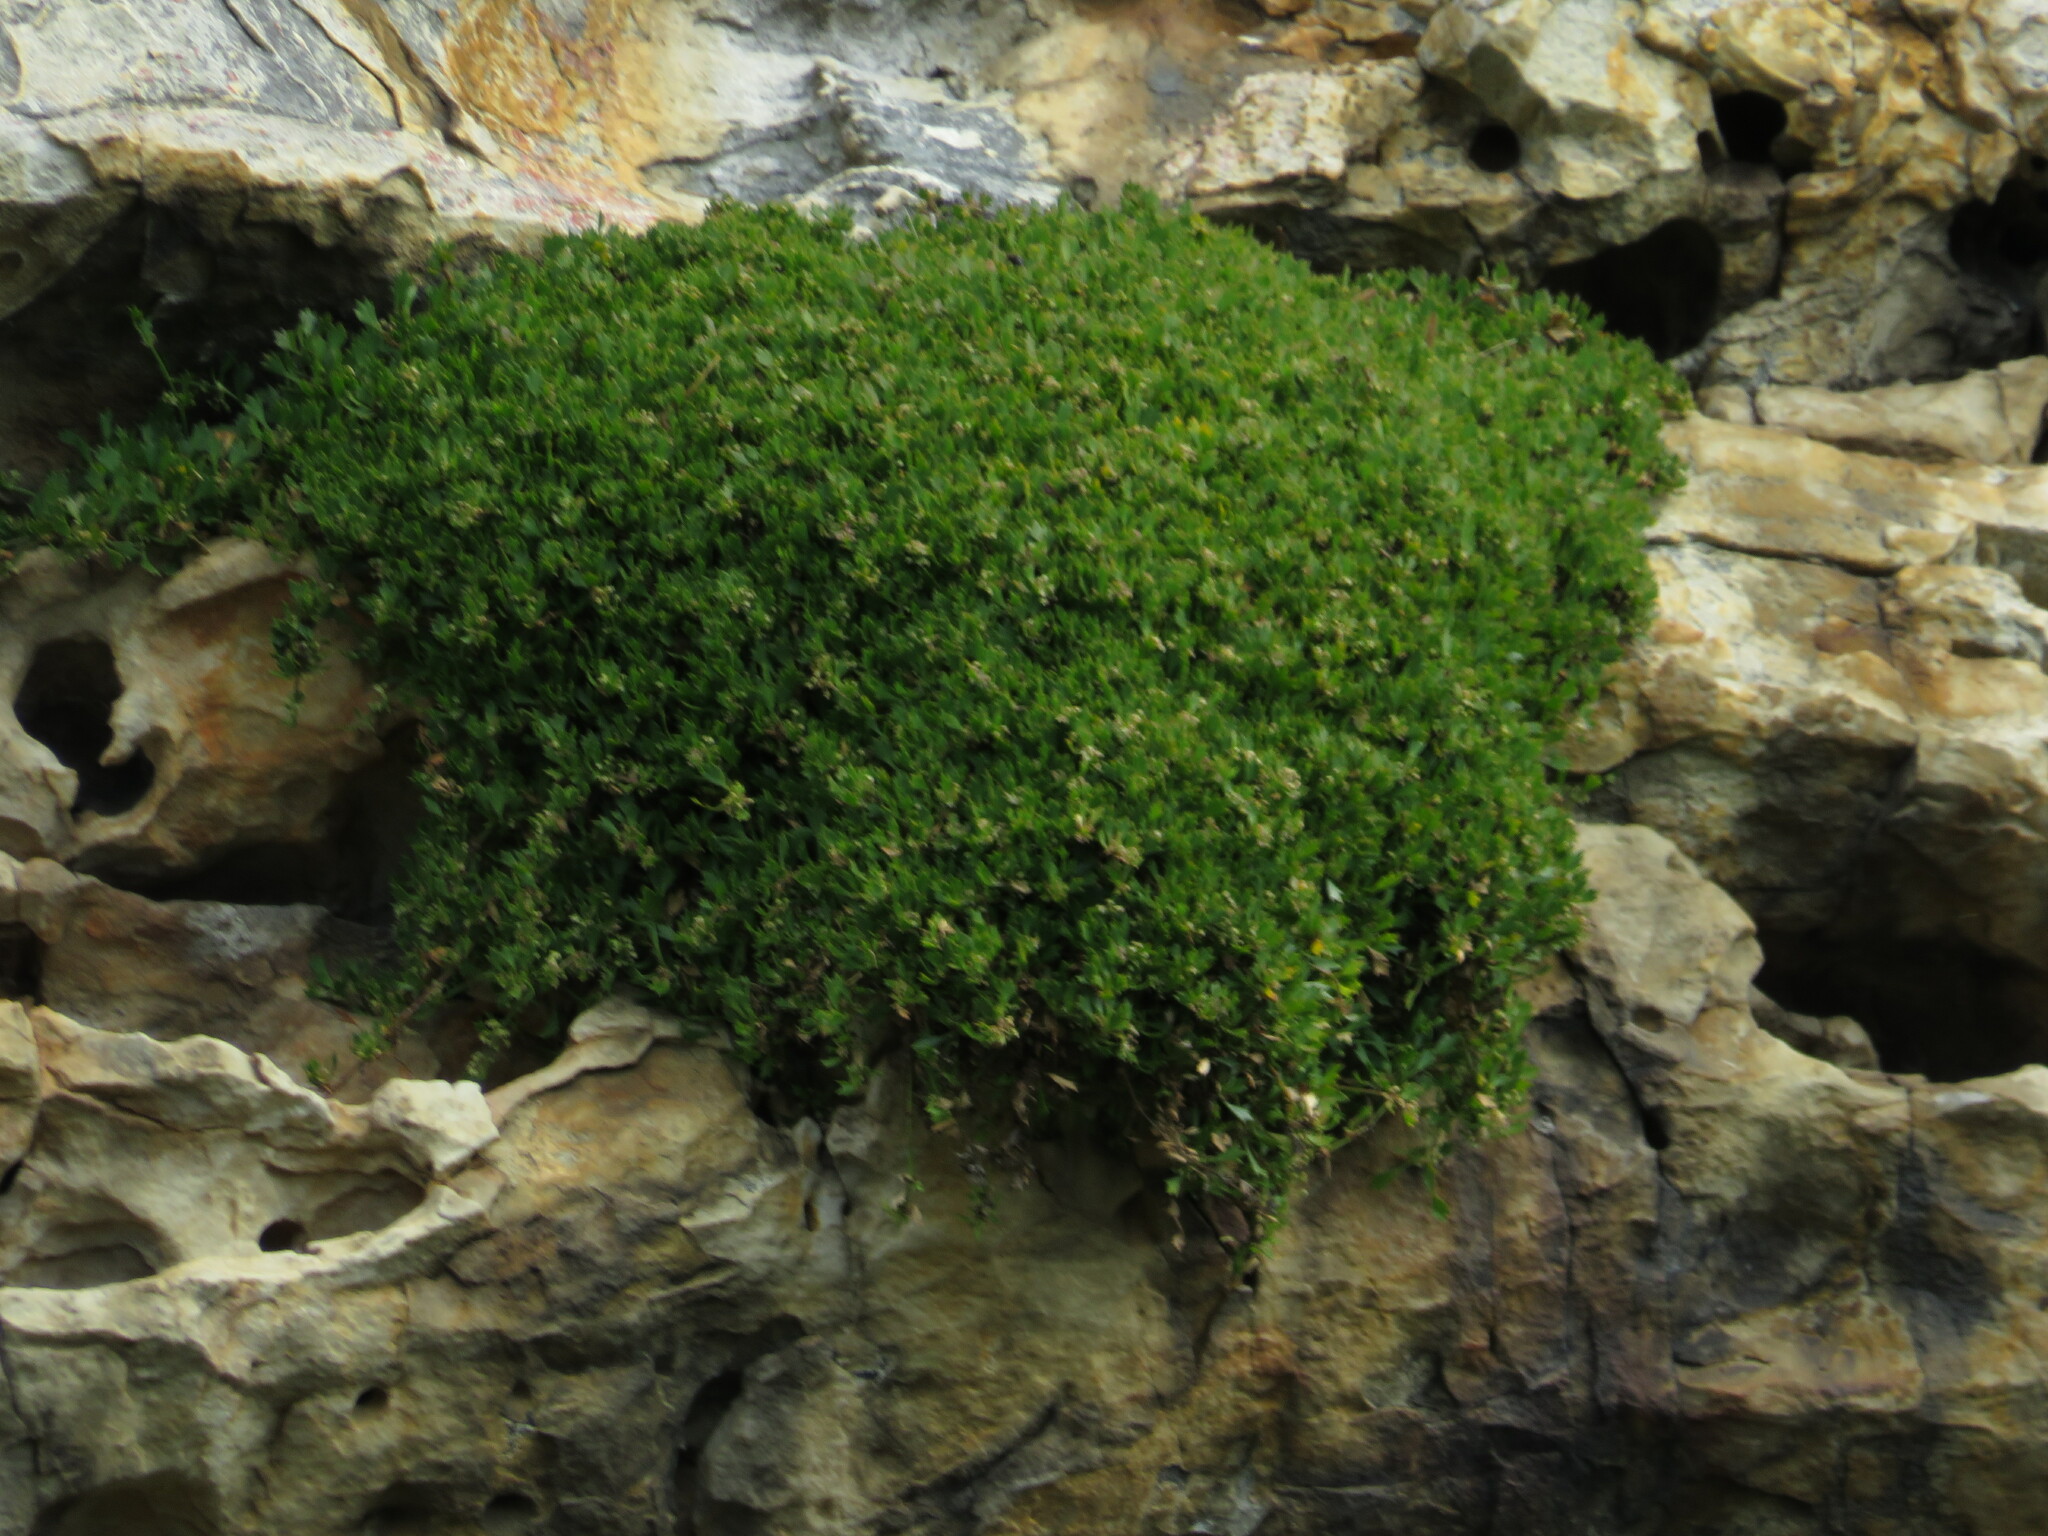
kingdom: Plantae
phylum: Tracheophyta
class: Magnoliopsida
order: Apiales
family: Apiaceae
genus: Centella
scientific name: Centella triloba
